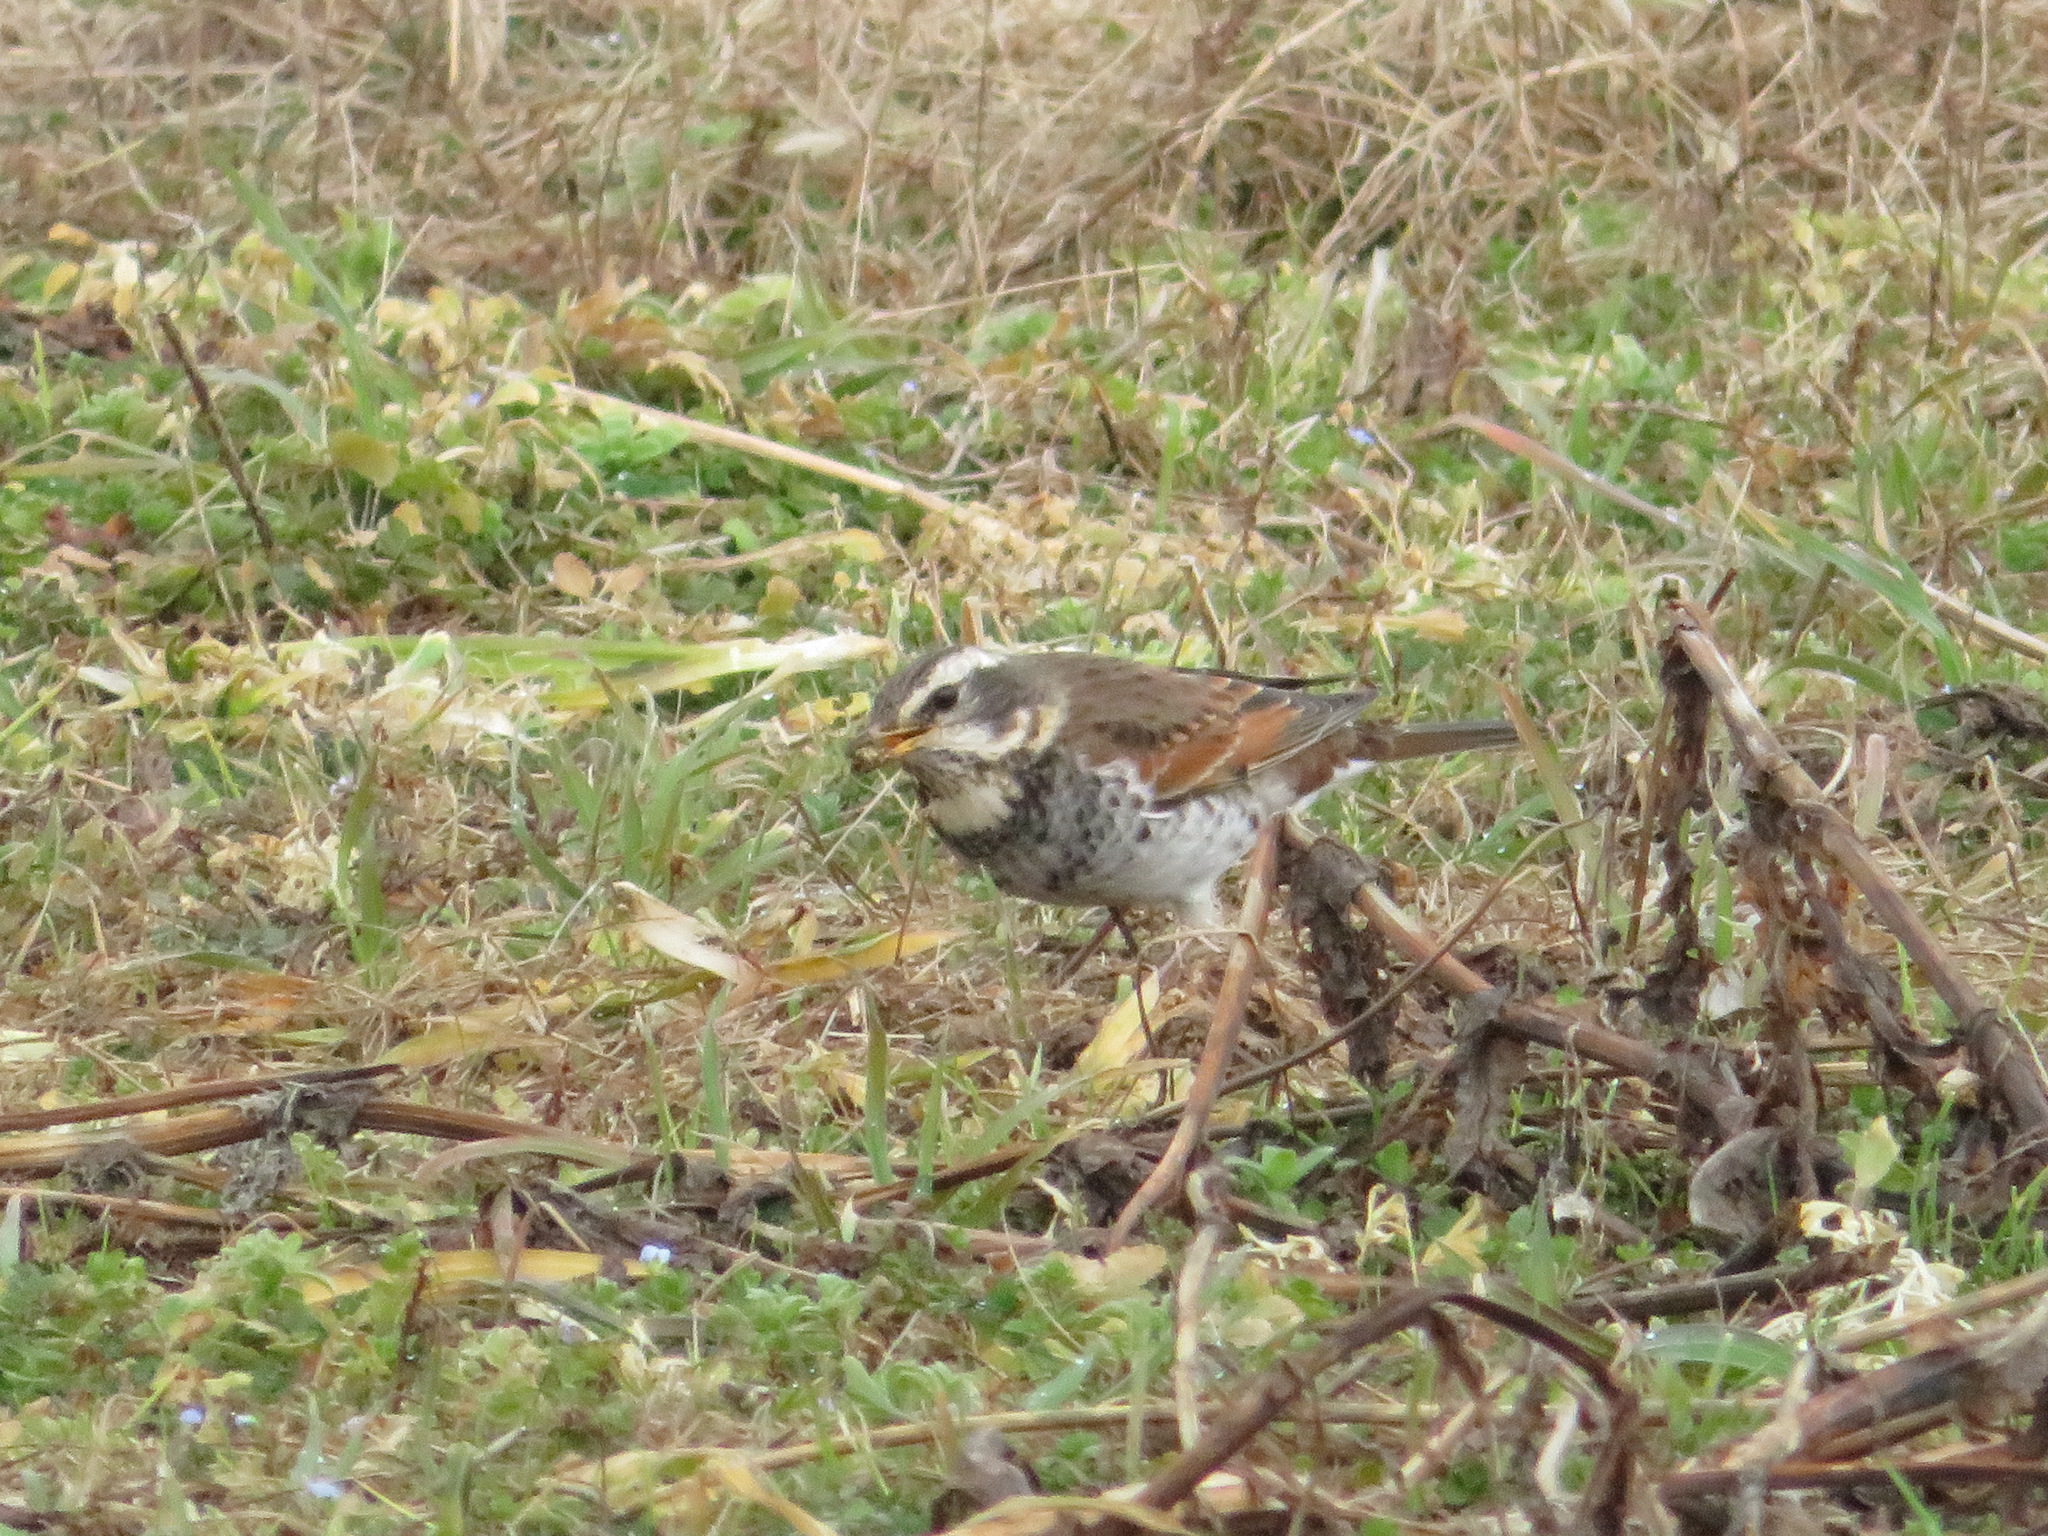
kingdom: Animalia
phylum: Chordata
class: Aves
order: Passeriformes
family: Turdidae
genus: Turdus
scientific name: Turdus eunomus
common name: Dusky thrush
